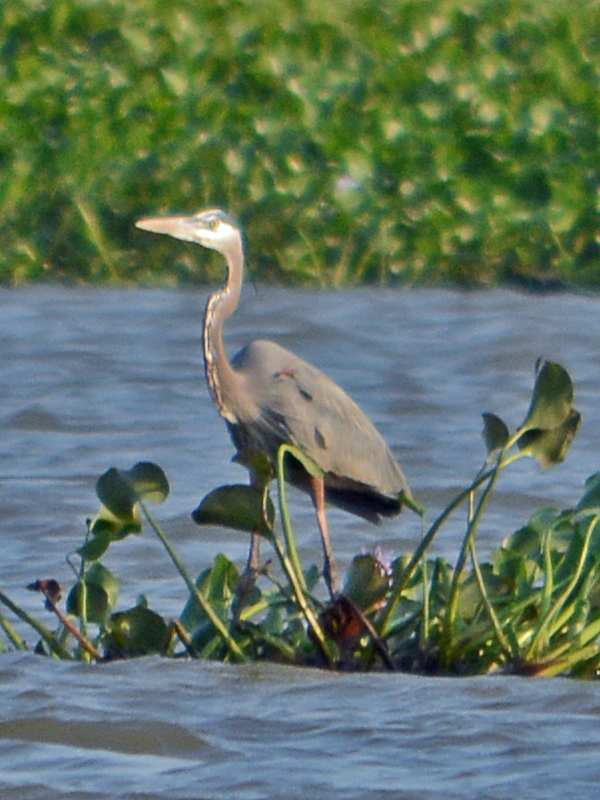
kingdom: Animalia
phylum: Chordata
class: Aves
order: Pelecaniformes
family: Ardeidae
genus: Ardea
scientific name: Ardea herodias
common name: Great blue heron
